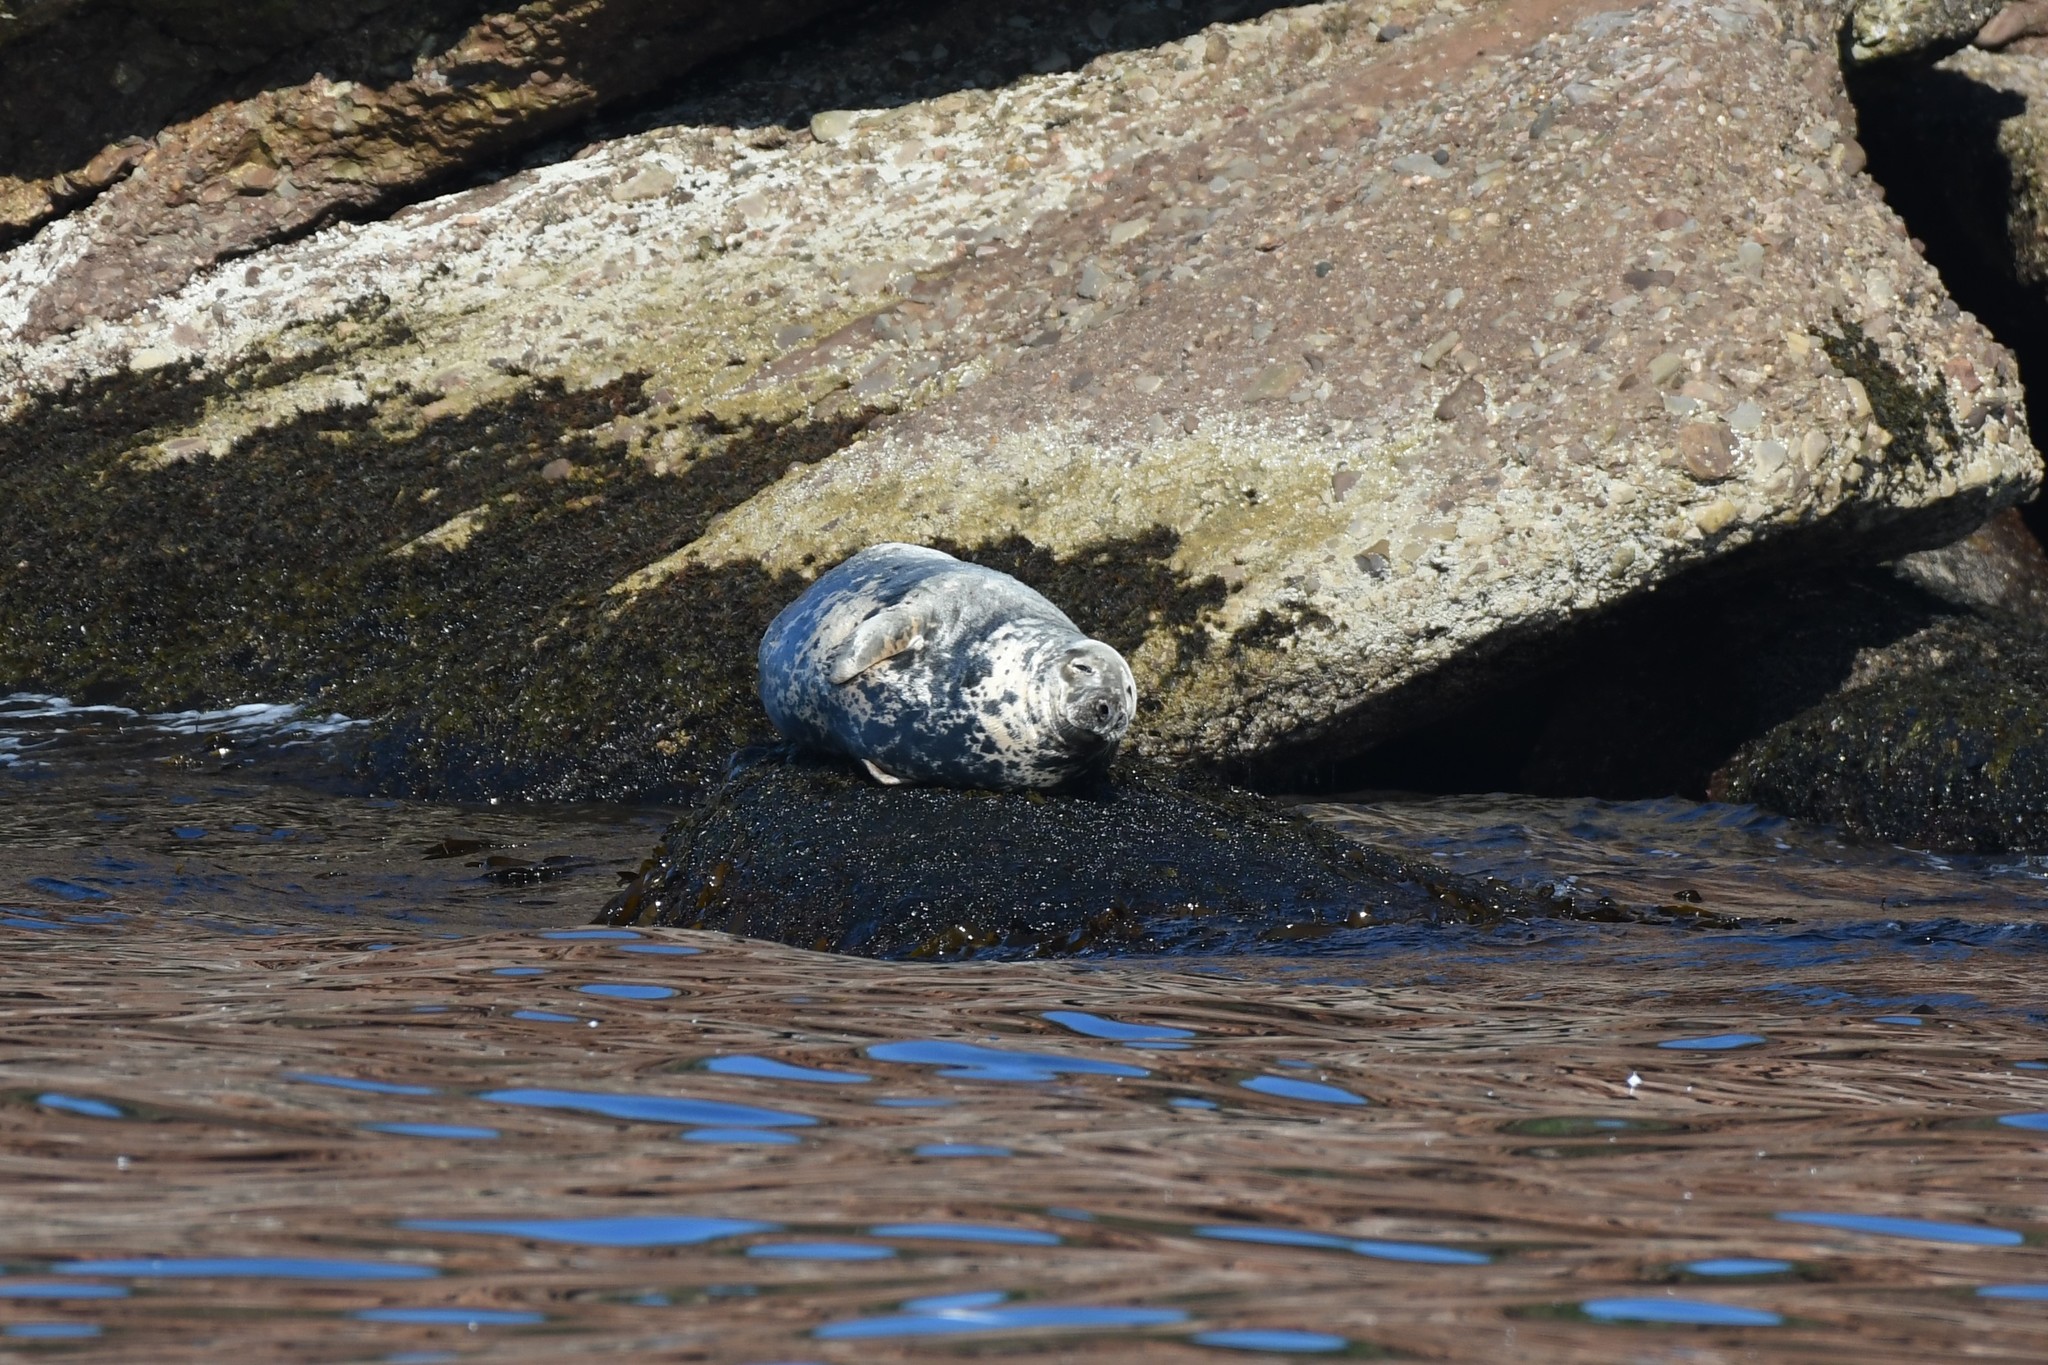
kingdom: Animalia
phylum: Chordata
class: Mammalia
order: Carnivora
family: Phocidae
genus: Halichoerus
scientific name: Halichoerus grypus
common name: Grey seal
